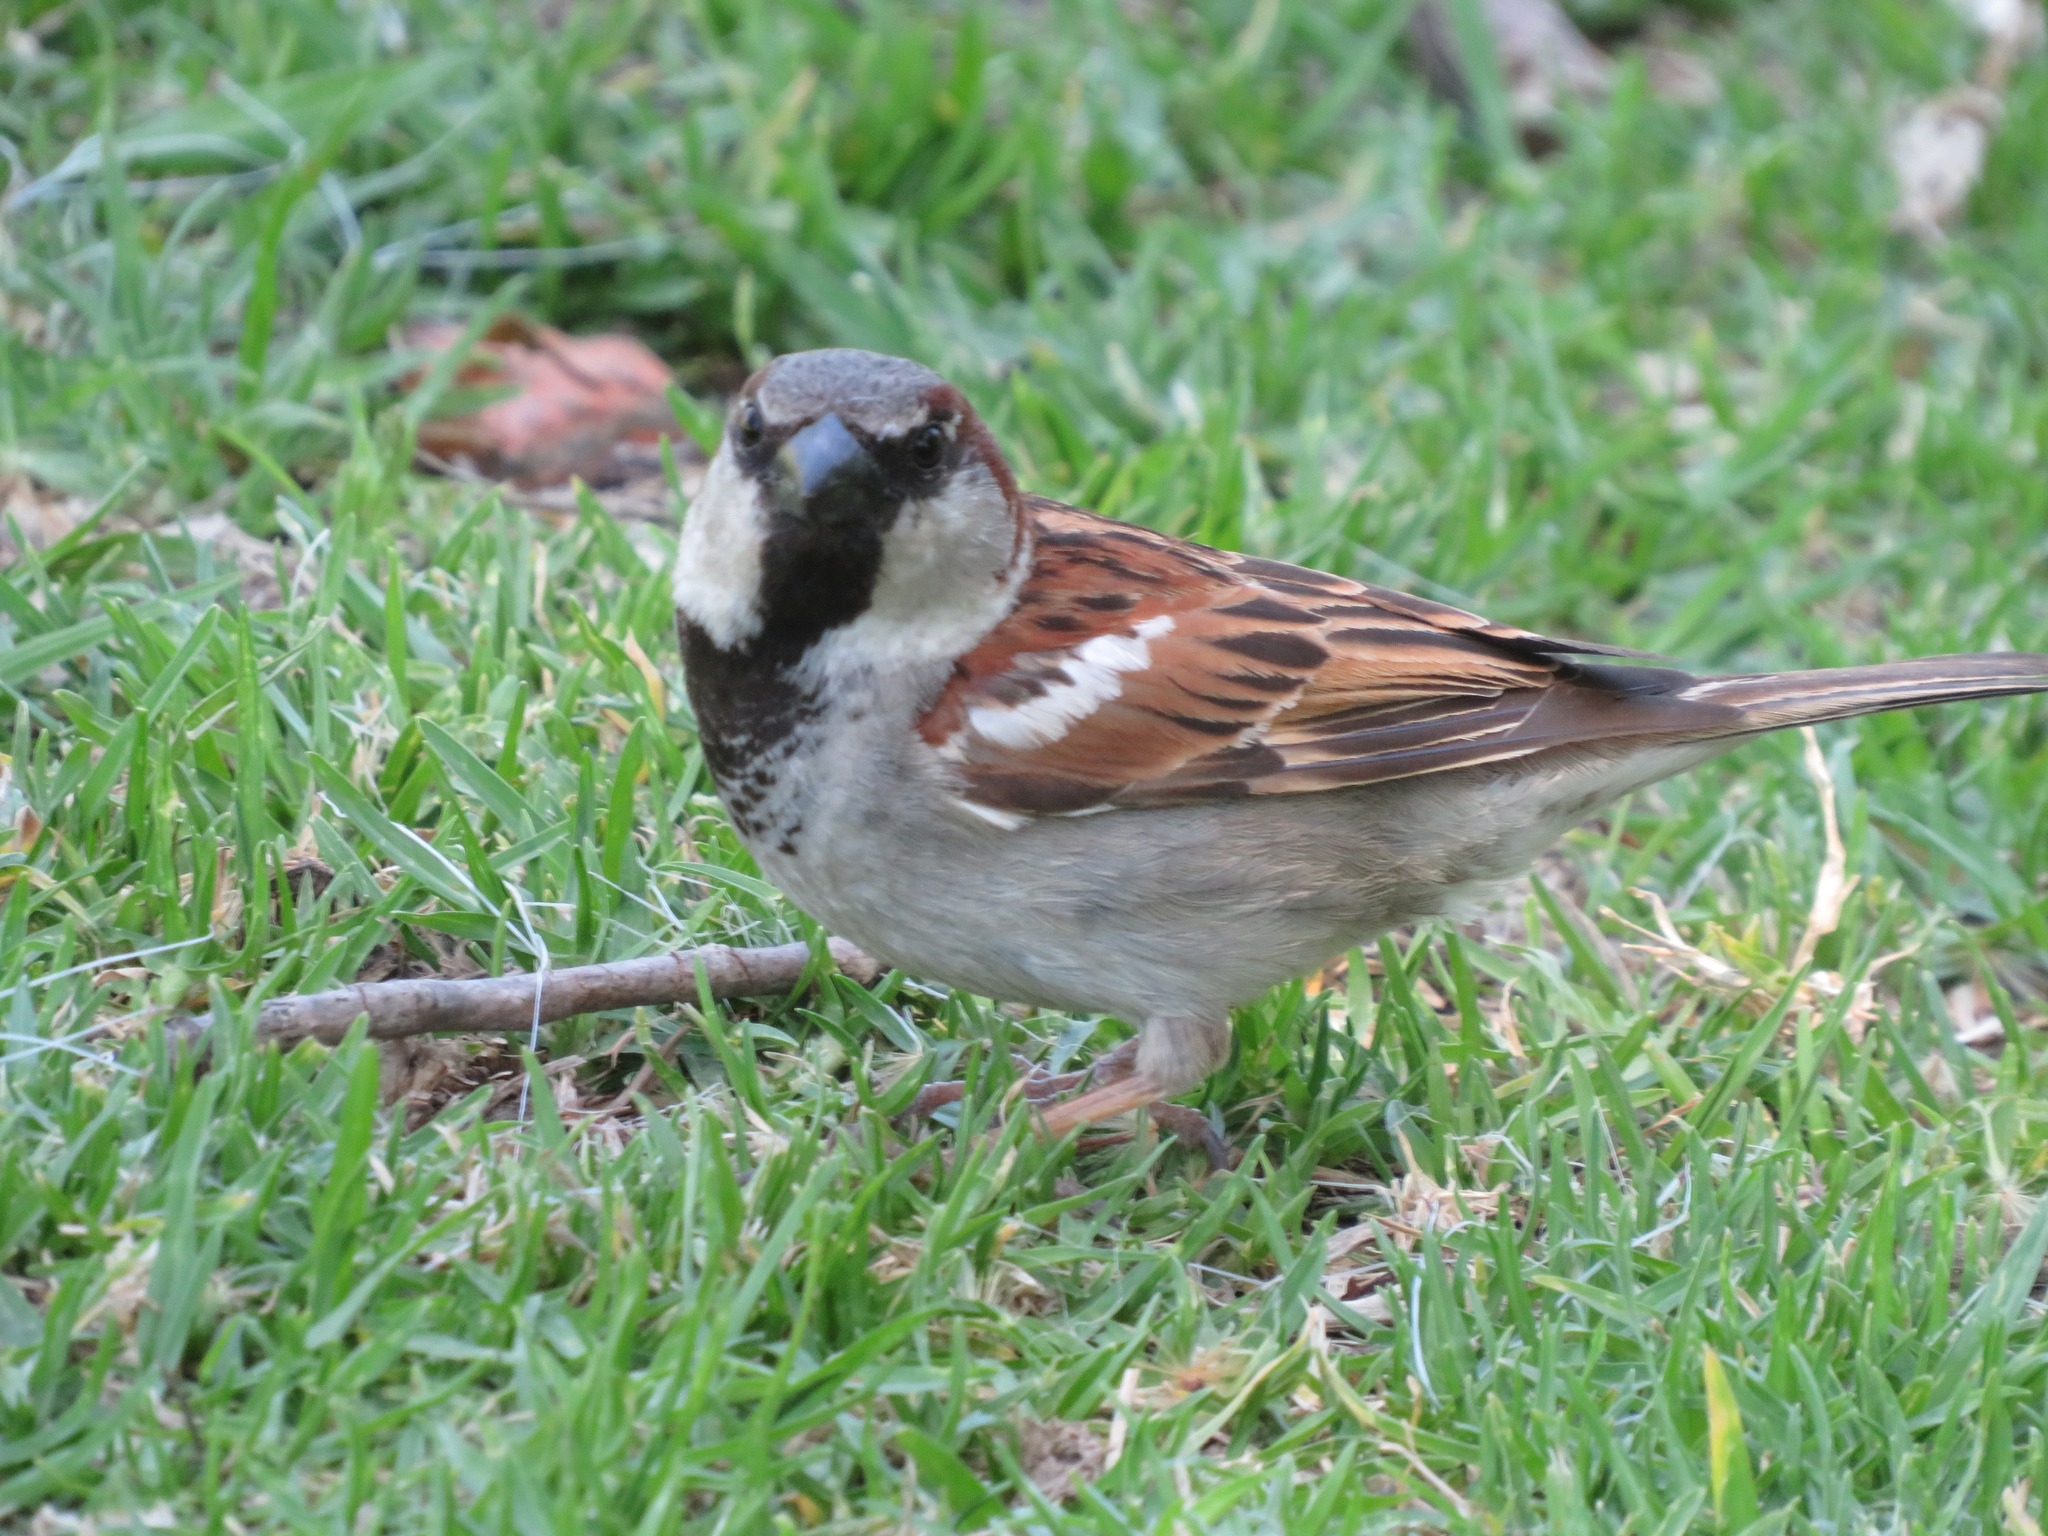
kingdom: Animalia
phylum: Chordata
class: Aves
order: Passeriformes
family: Passeridae
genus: Passer
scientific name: Passer domesticus
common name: House sparrow
